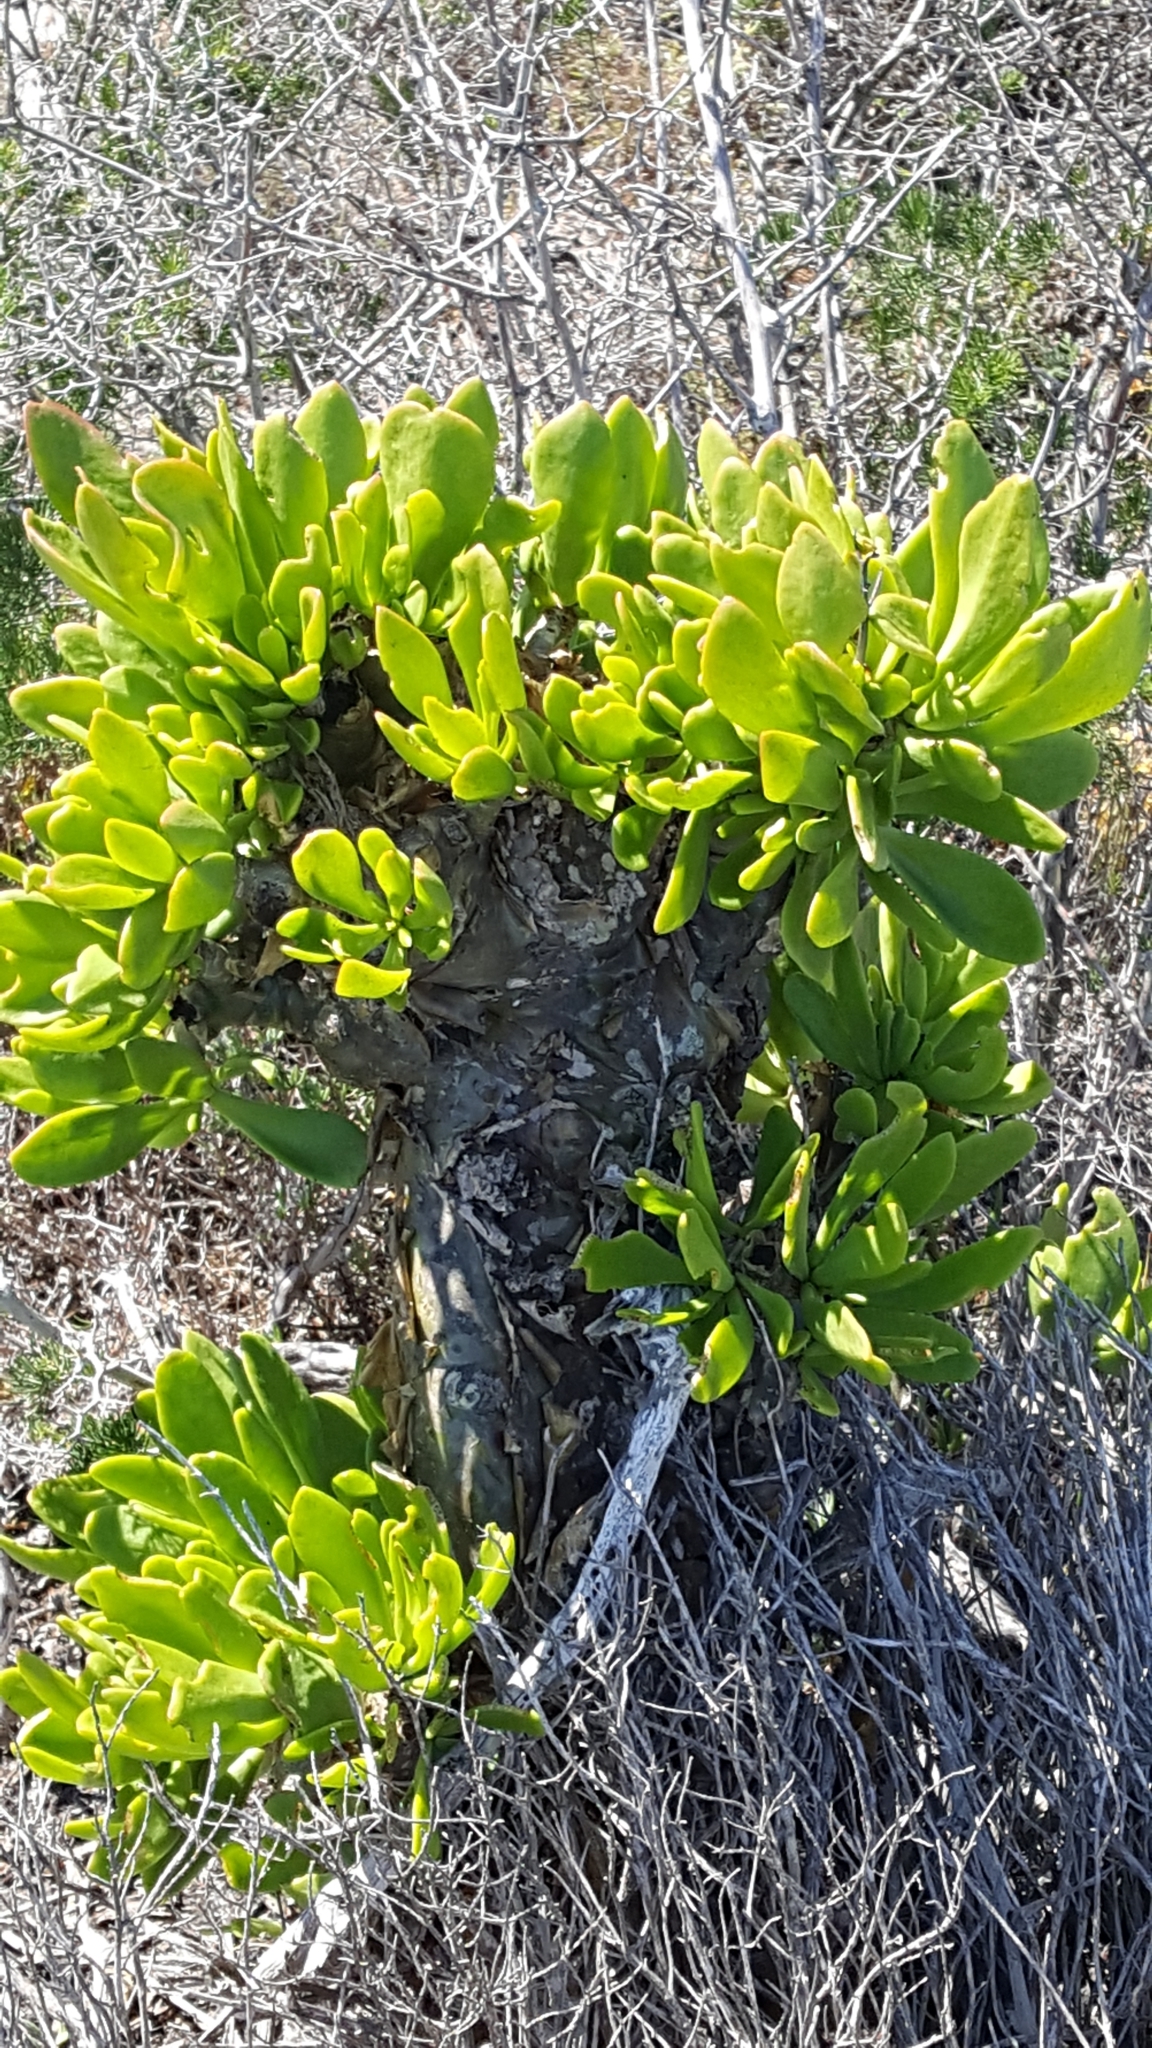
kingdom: Plantae
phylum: Tracheophyta
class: Magnoliopsida
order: Saxifragales
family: Crassulaceae
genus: Tylecodon
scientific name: Tylecodon paniculatus
